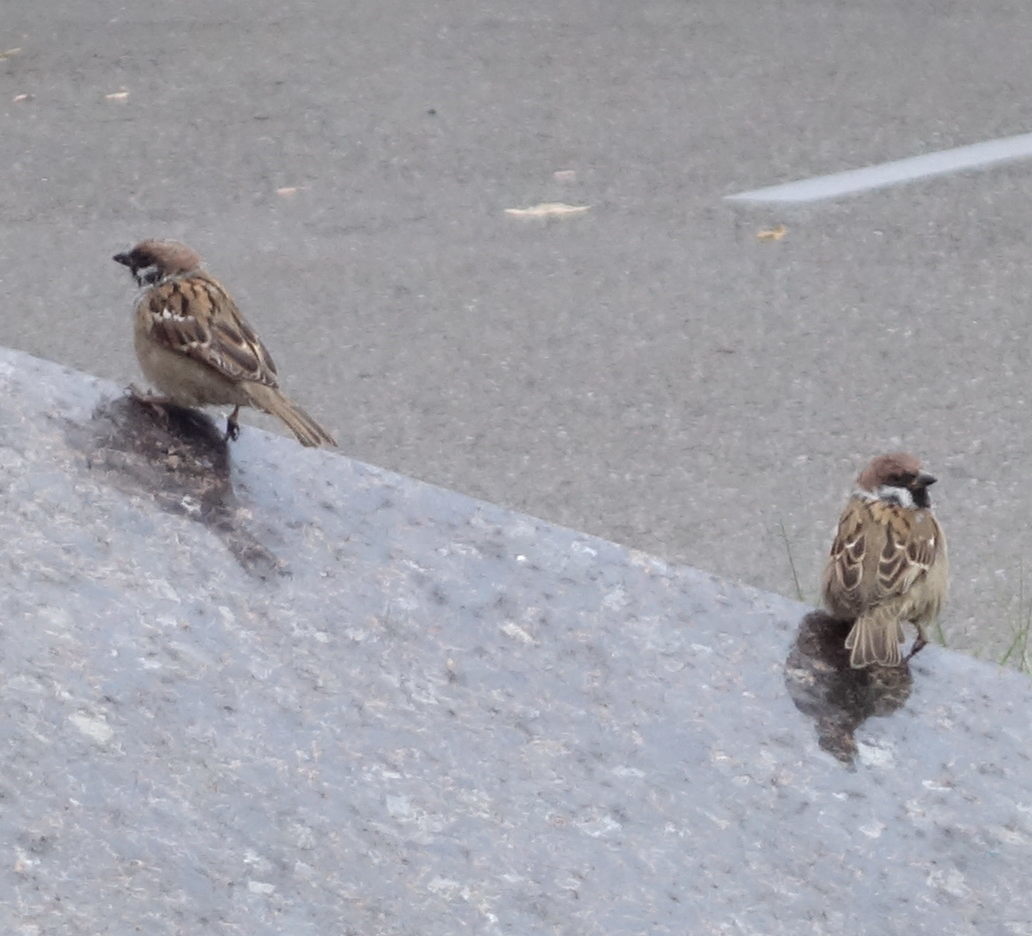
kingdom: Animalia
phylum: Chordata
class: Aves
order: Passeriformes
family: Passeridae
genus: Passer
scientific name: Passer montanus
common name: Eurasian tree sparrow
